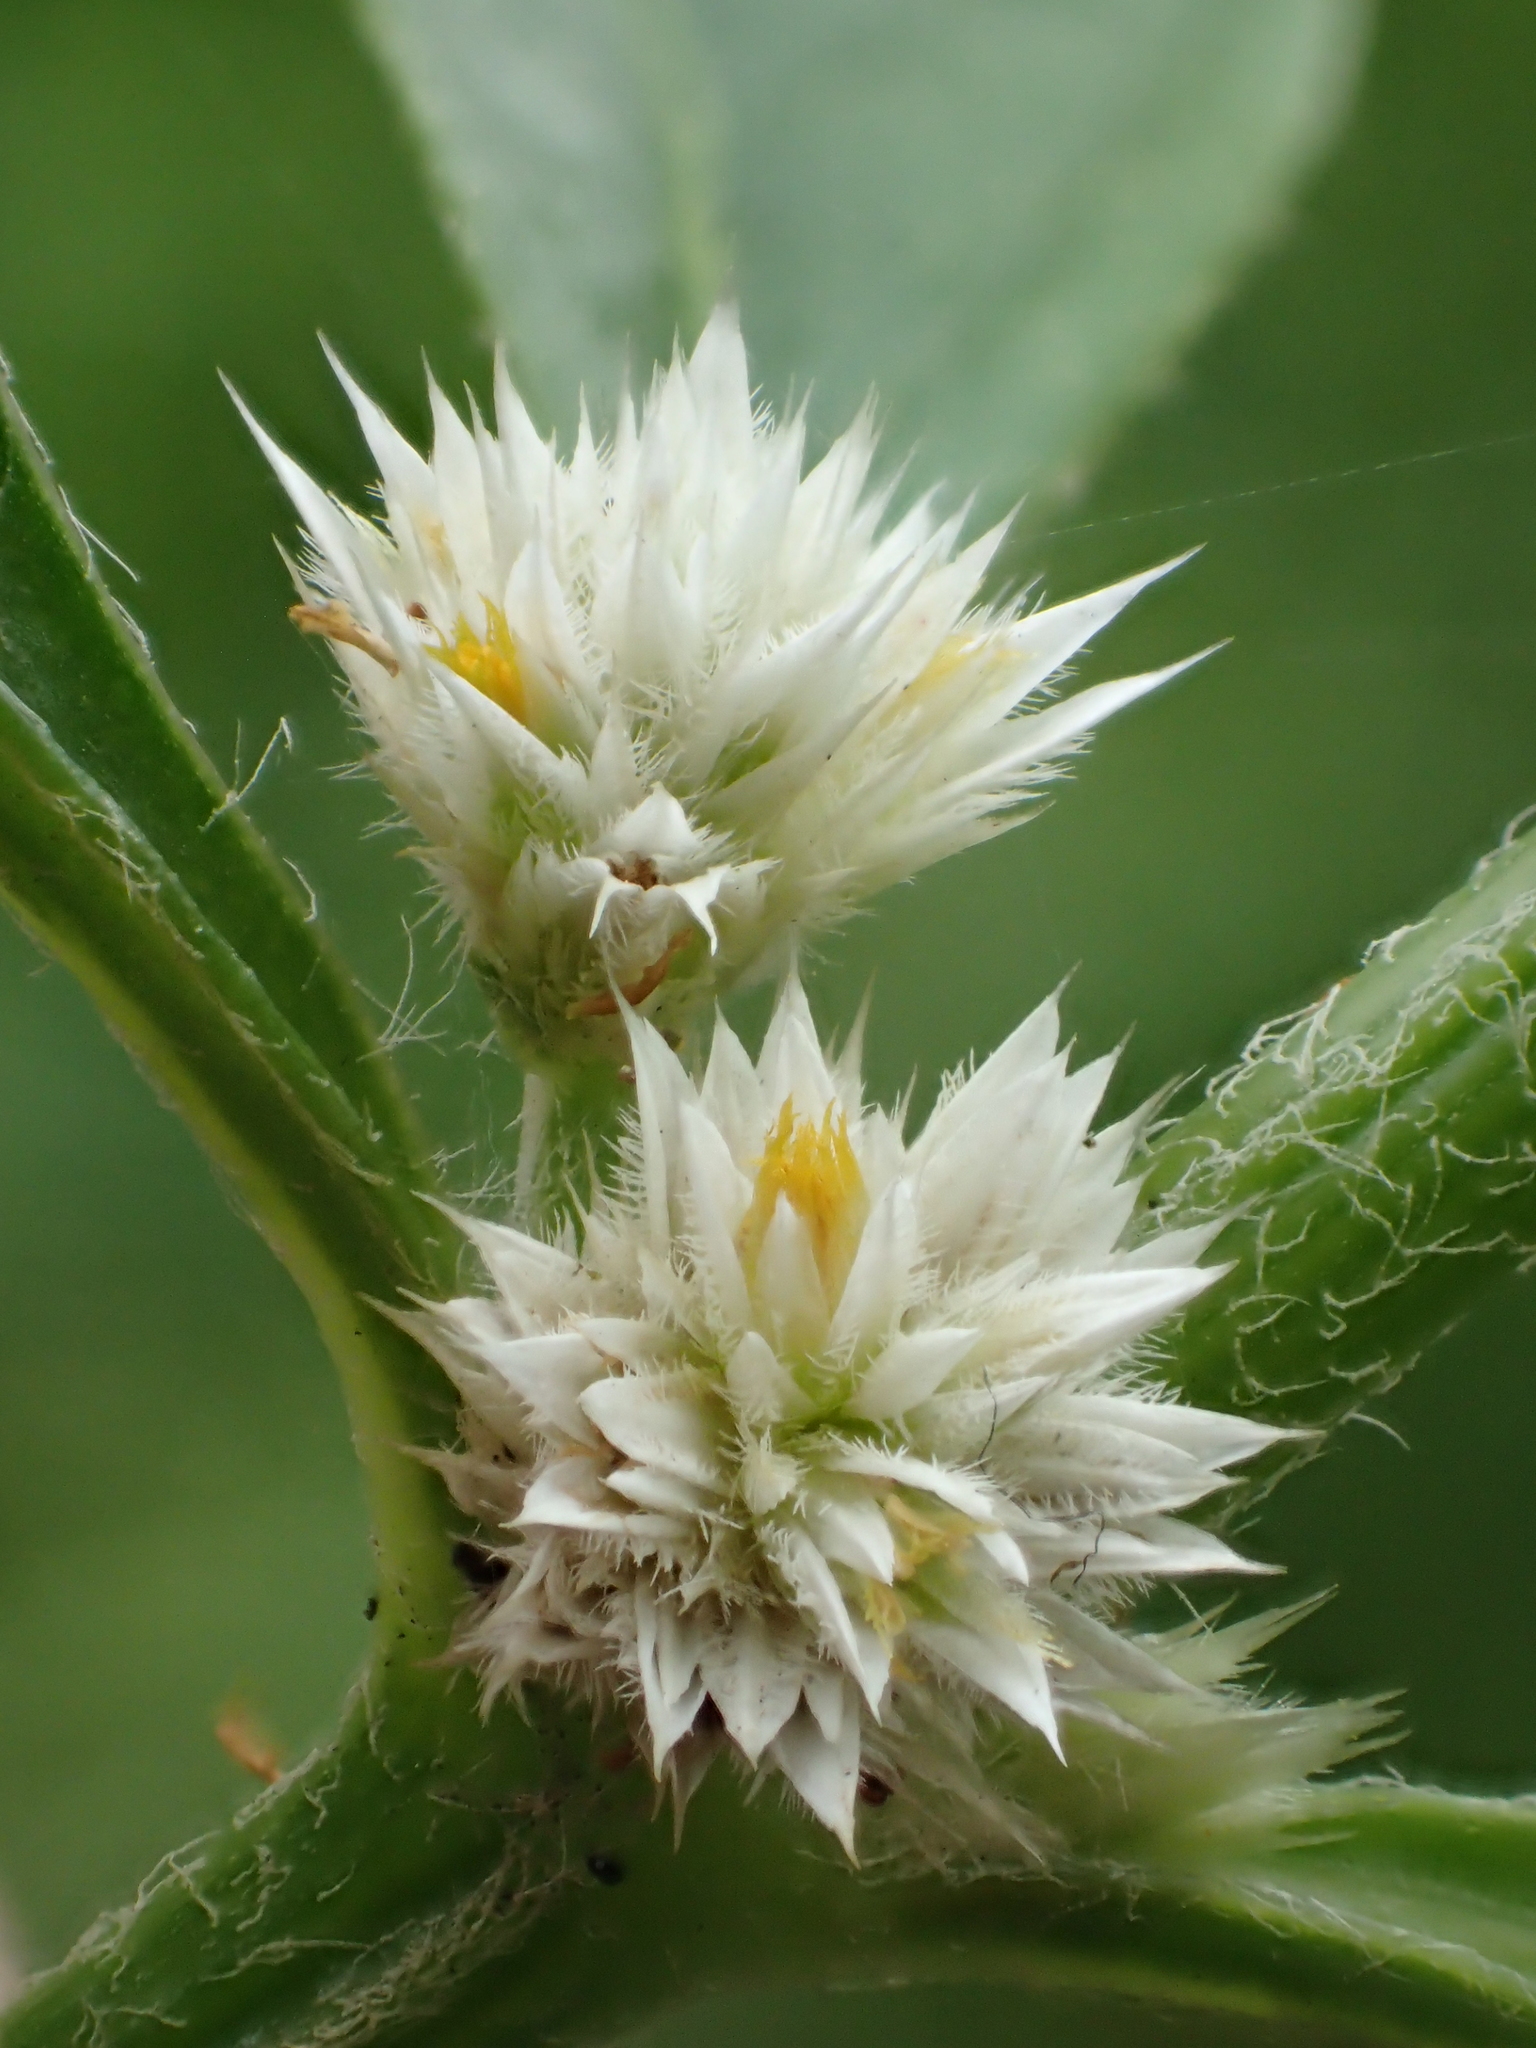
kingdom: Plantae
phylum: Tracheophyta
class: Magnoliopsida
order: Caryophyllales
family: Amaranthaceae
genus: Alternanthera
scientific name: Alternanthera bettzickiana
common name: Calico-plant
